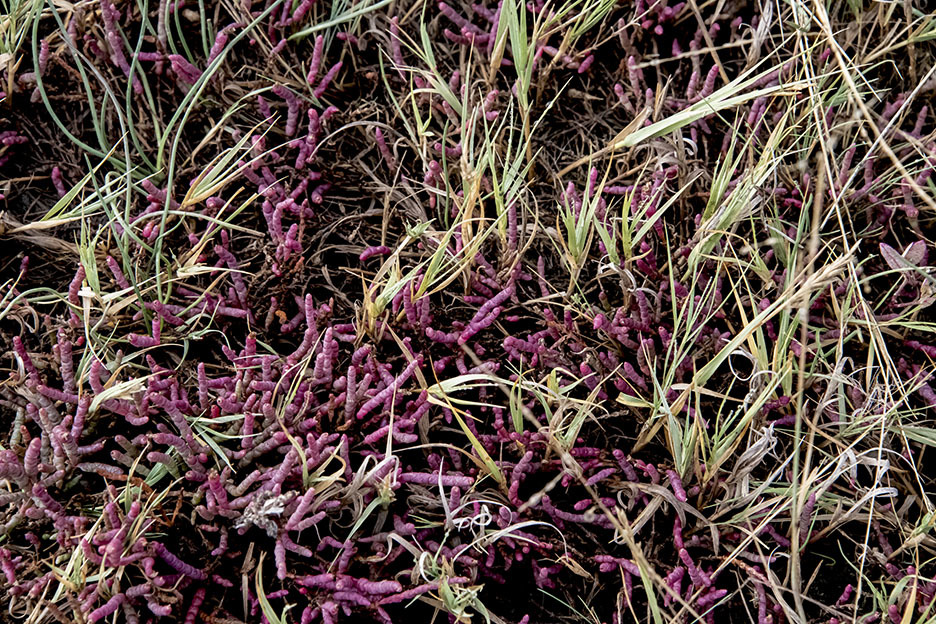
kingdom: Plantae
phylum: Tracheophyta
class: Magnoliopsida
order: Caryophyllales
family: Amaranthaceae
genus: Salicornia
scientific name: Salicornia rubra
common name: Red glasswort
